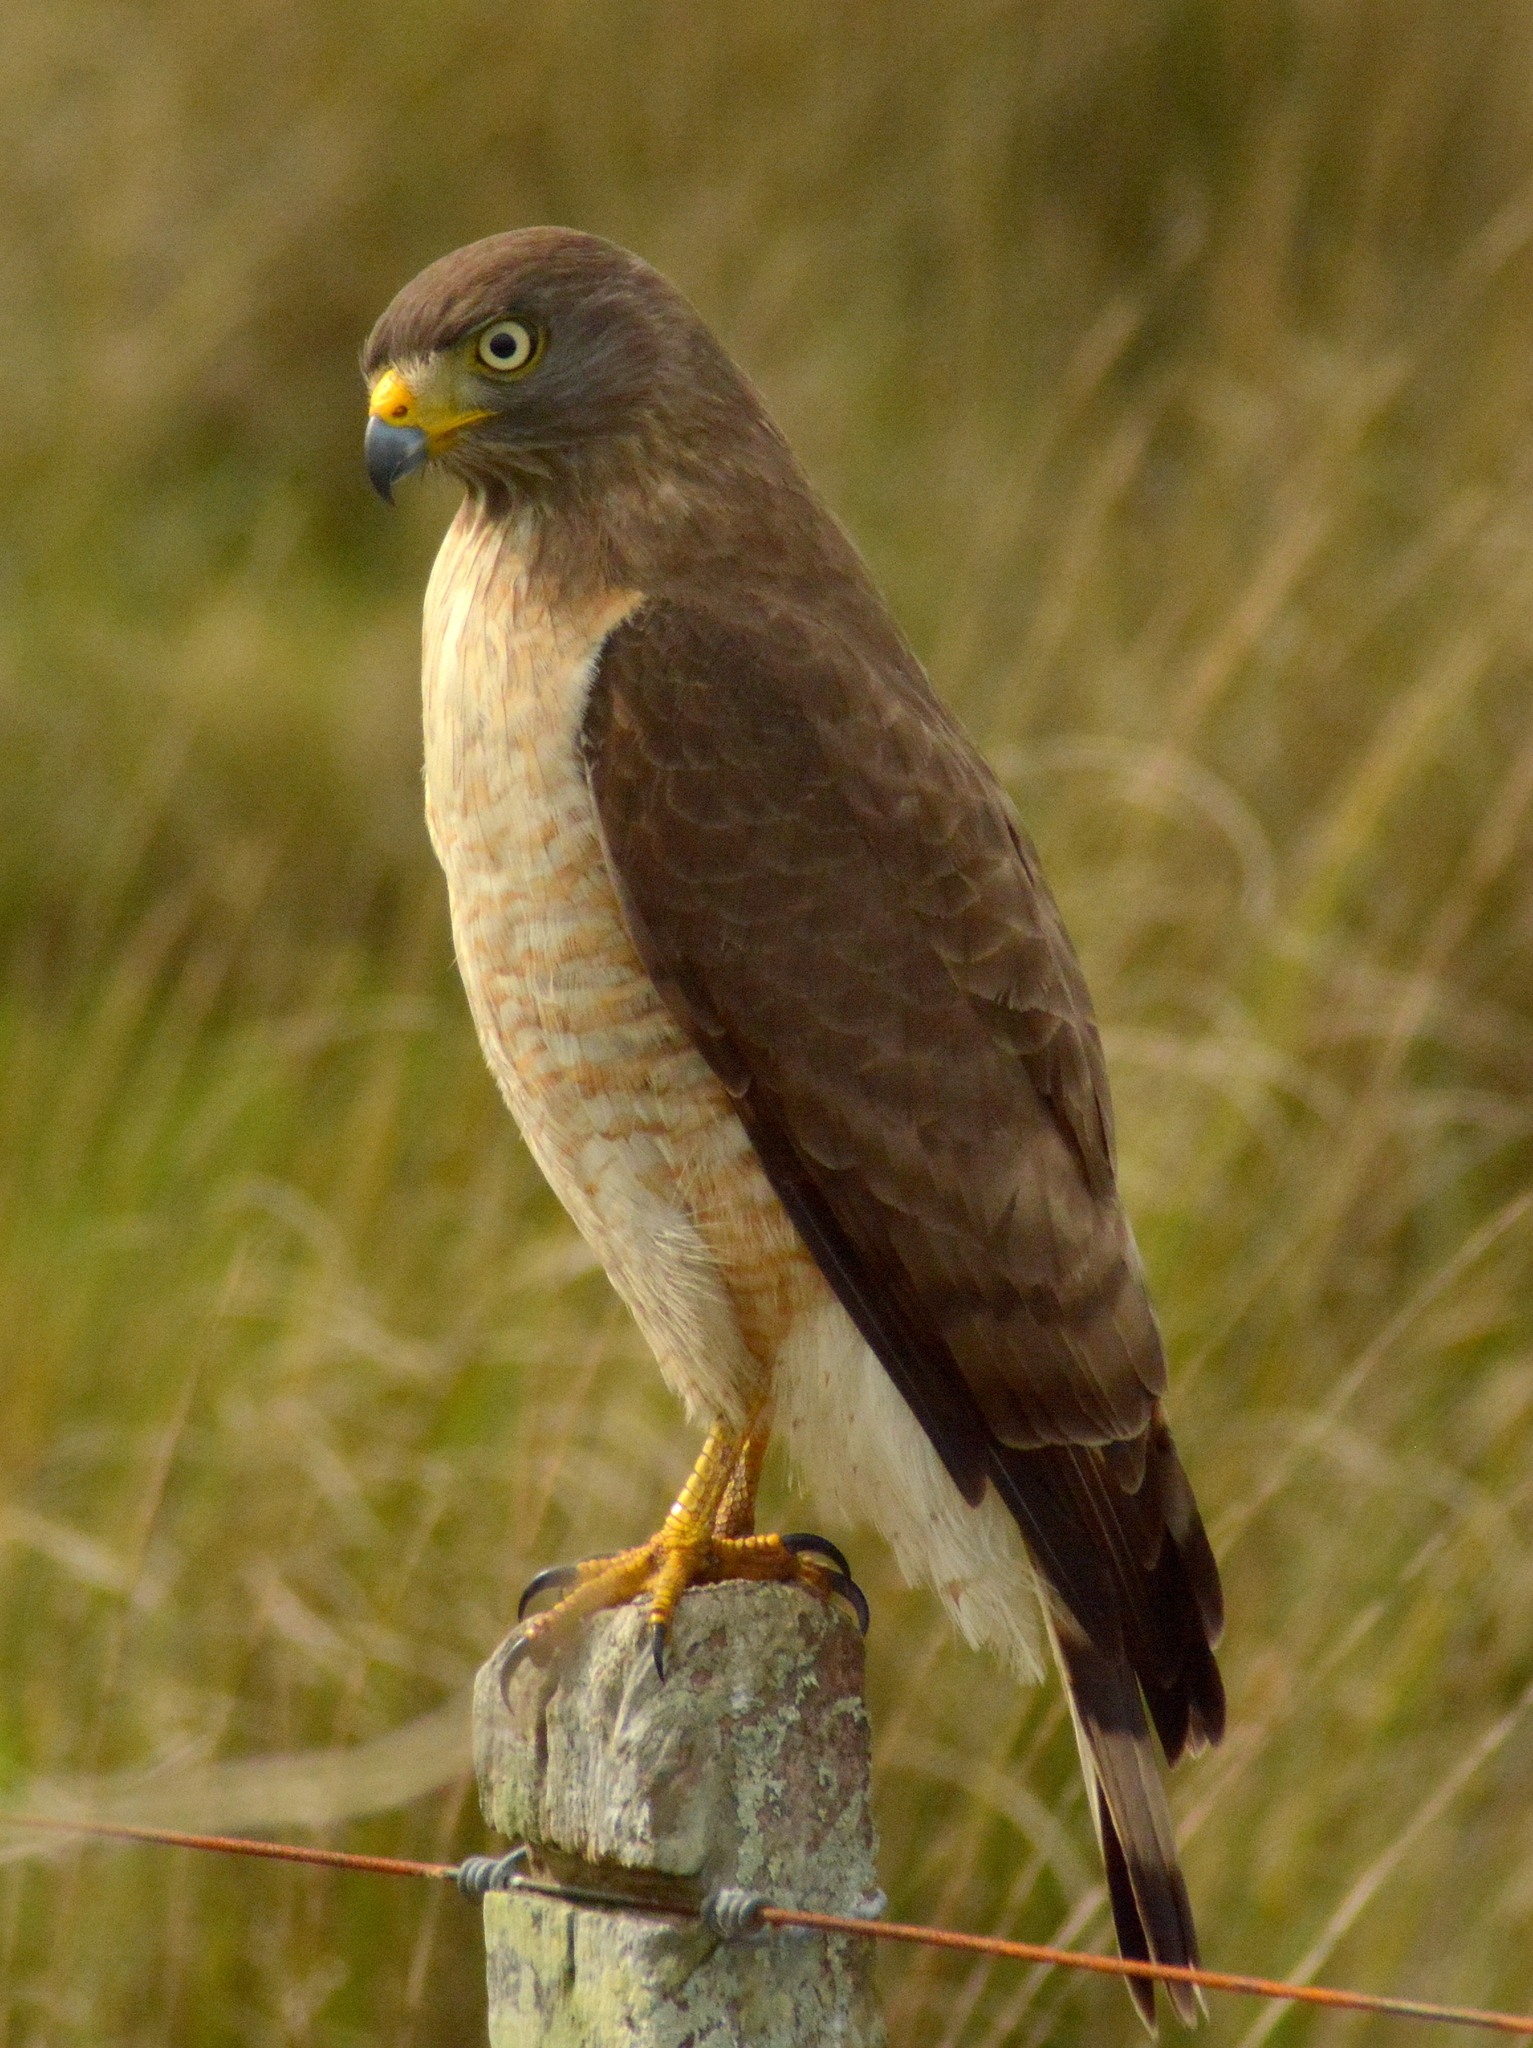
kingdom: Animalia
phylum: Chordata
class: Aves
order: Accipitriformes
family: Accipitridae
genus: Rupornis
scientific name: Rupornis magnirostris
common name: Roadside hawk
